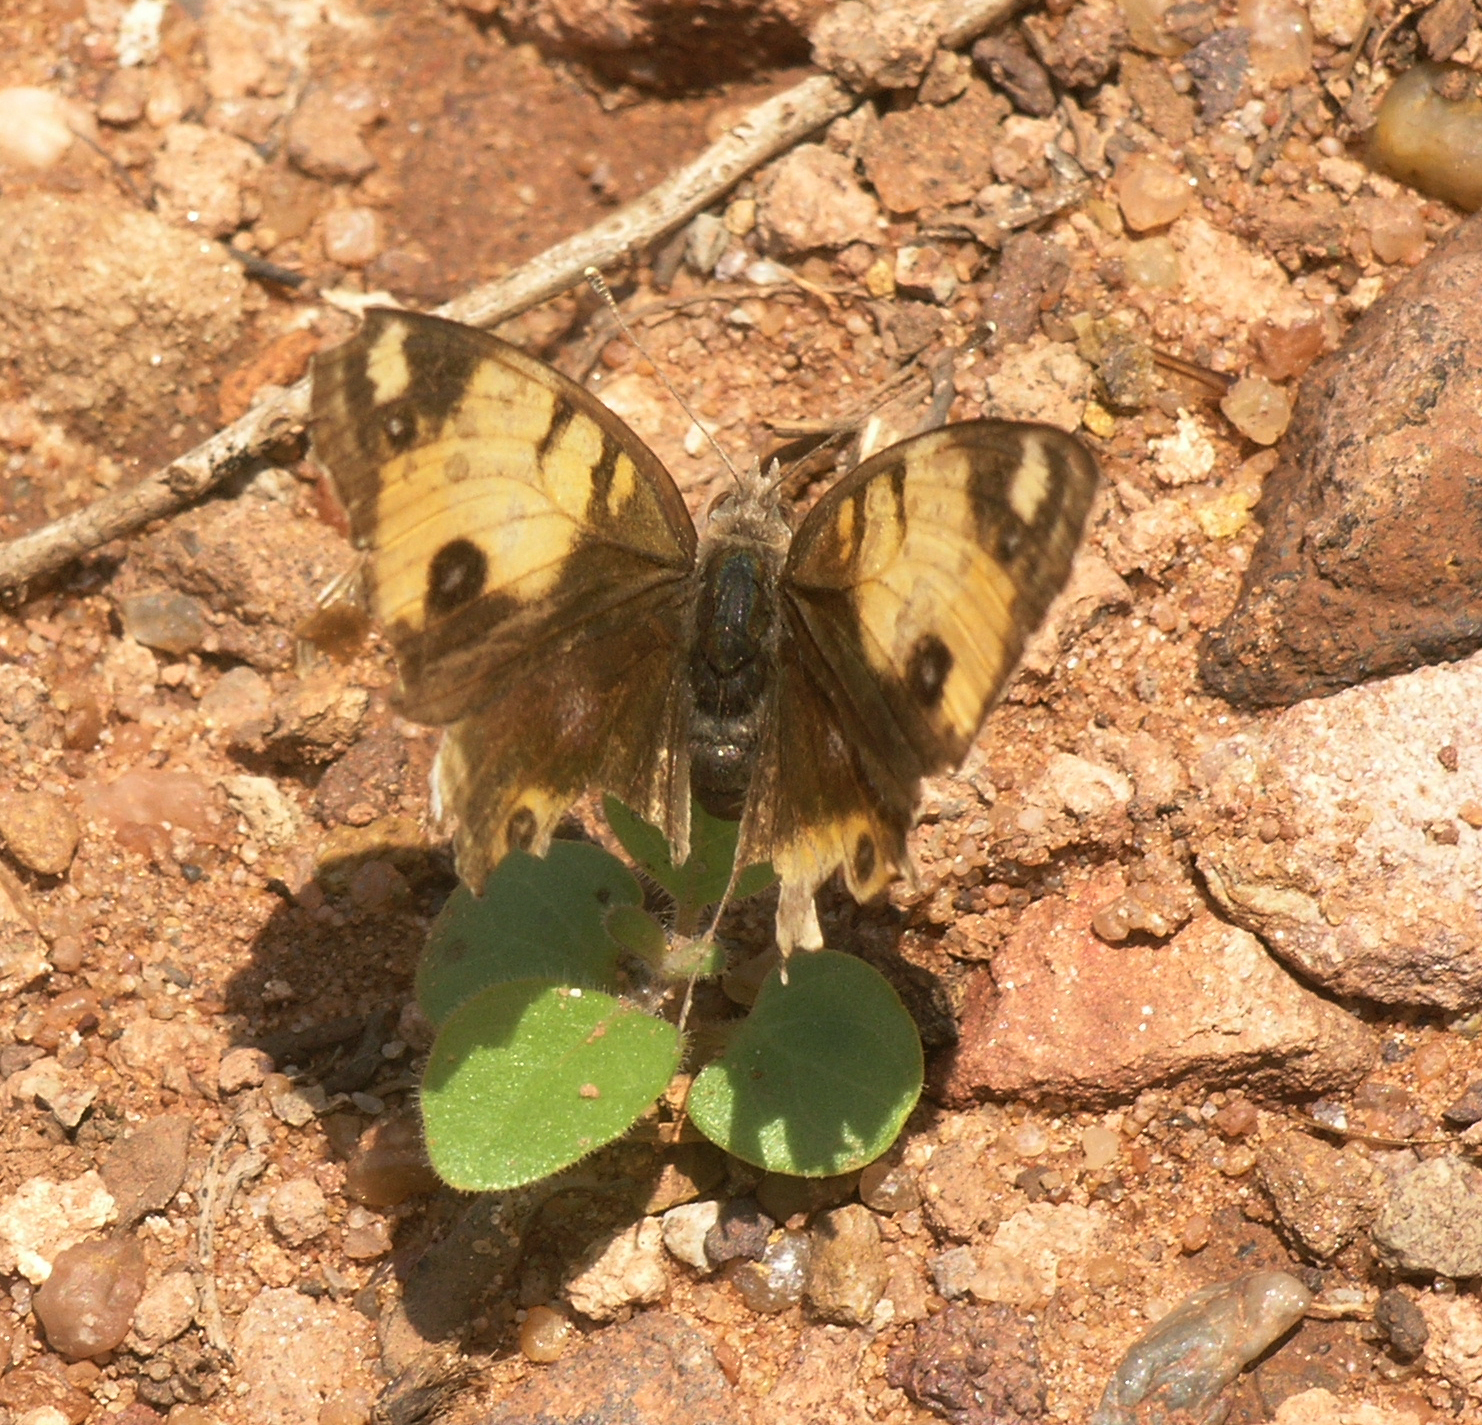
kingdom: Animalia
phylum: Arthropoda
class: Insecta
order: Lepidoptera
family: Nymphalidae
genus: Junonia
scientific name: Junonia hierta
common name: Yellow pansy
